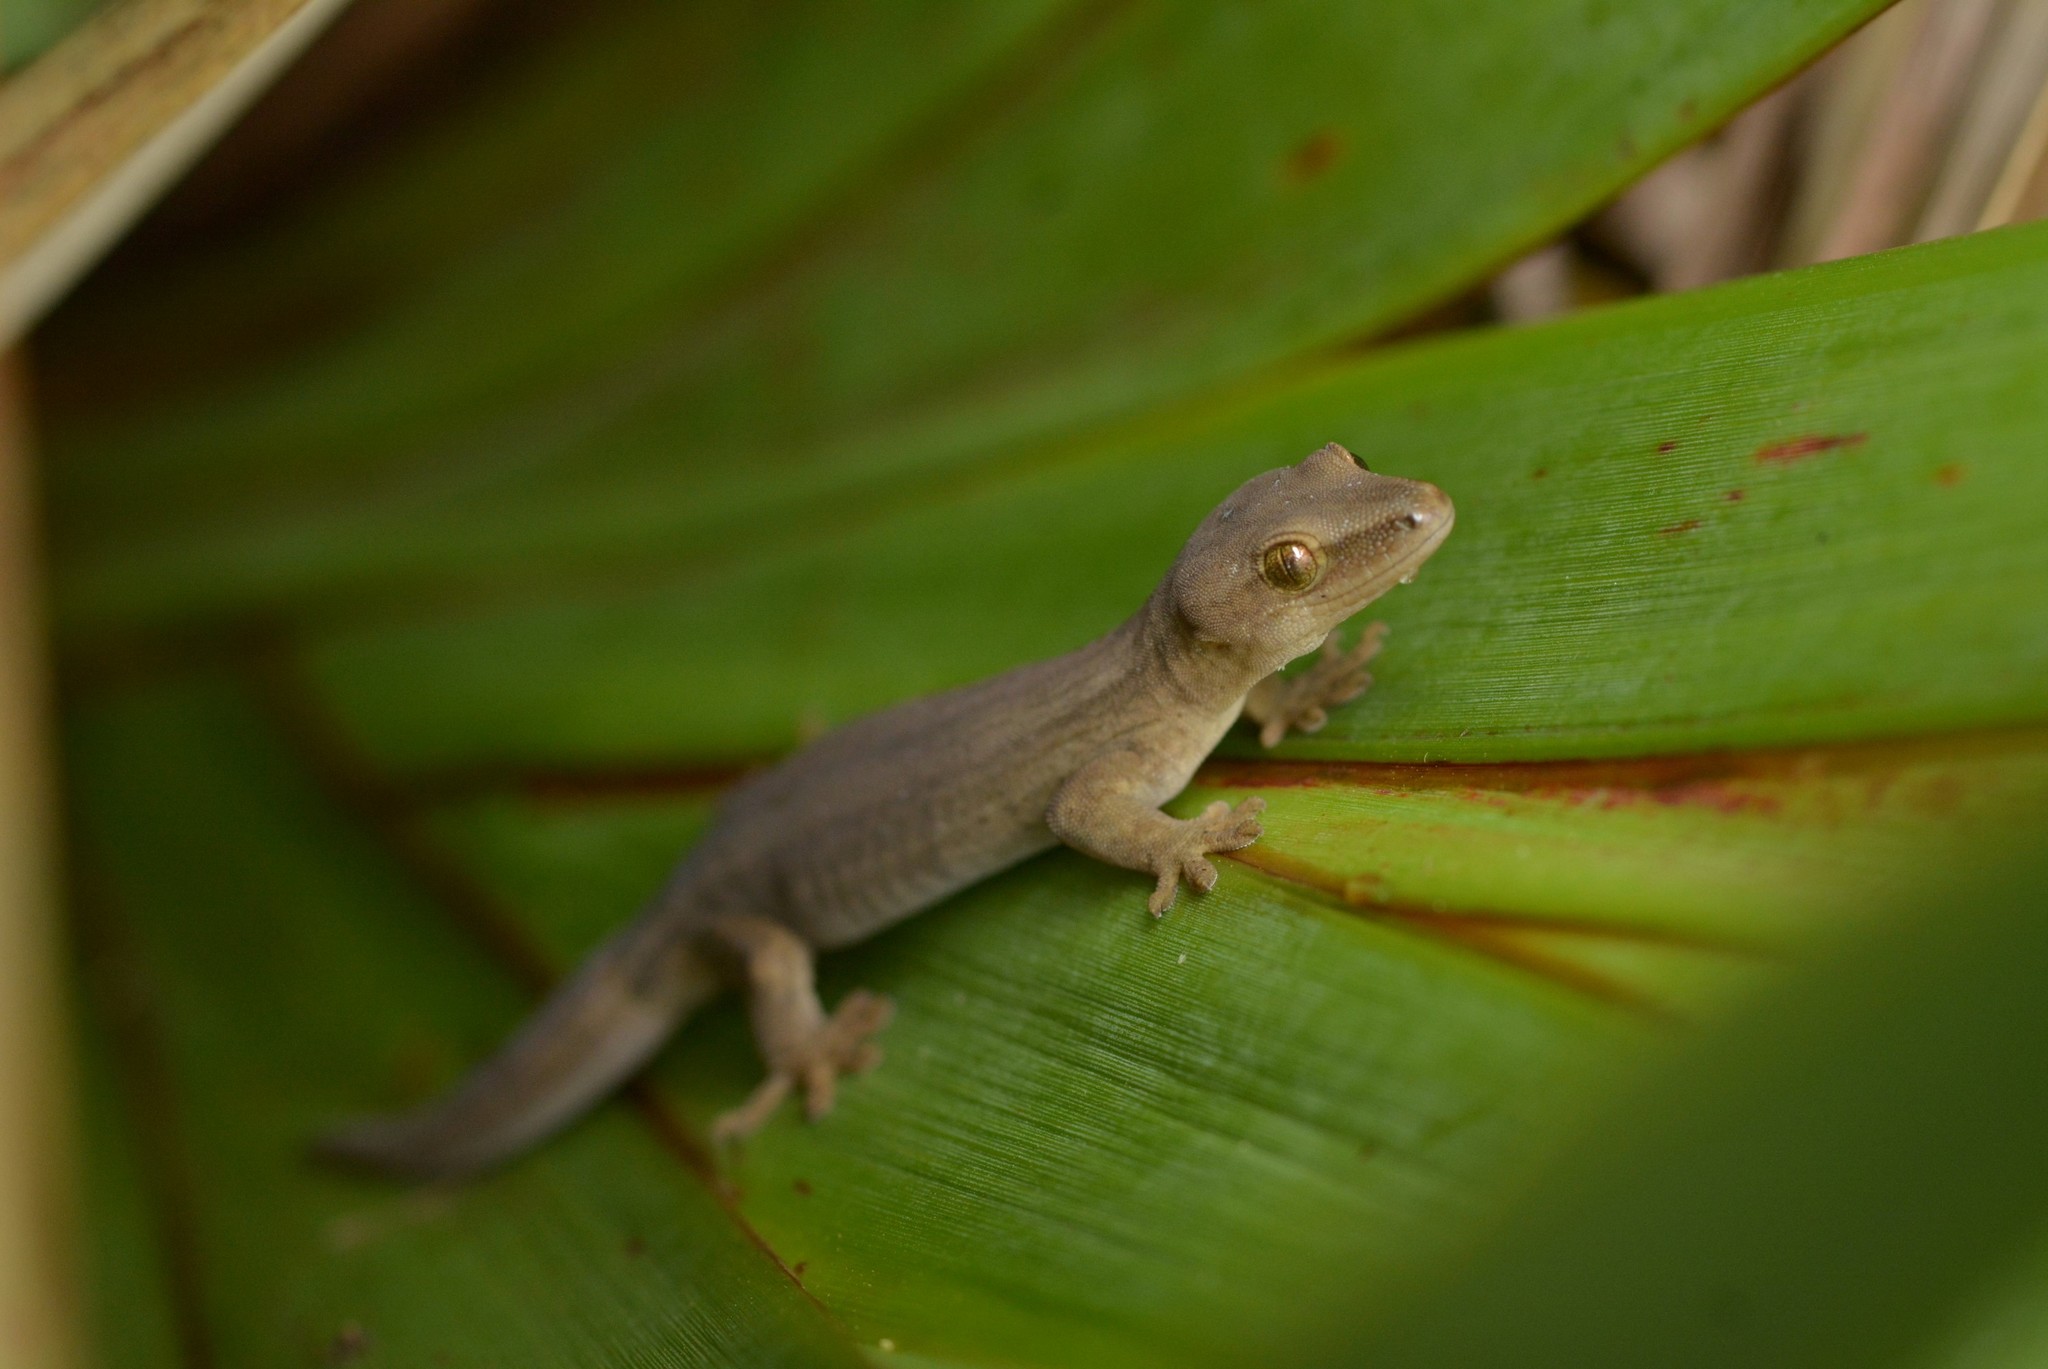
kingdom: Animalia
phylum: Chordata
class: Squamata
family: Diplodactylidae
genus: Woodworthia
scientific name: Woodworthia chrysosiretica
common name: Gold-striped gecko
